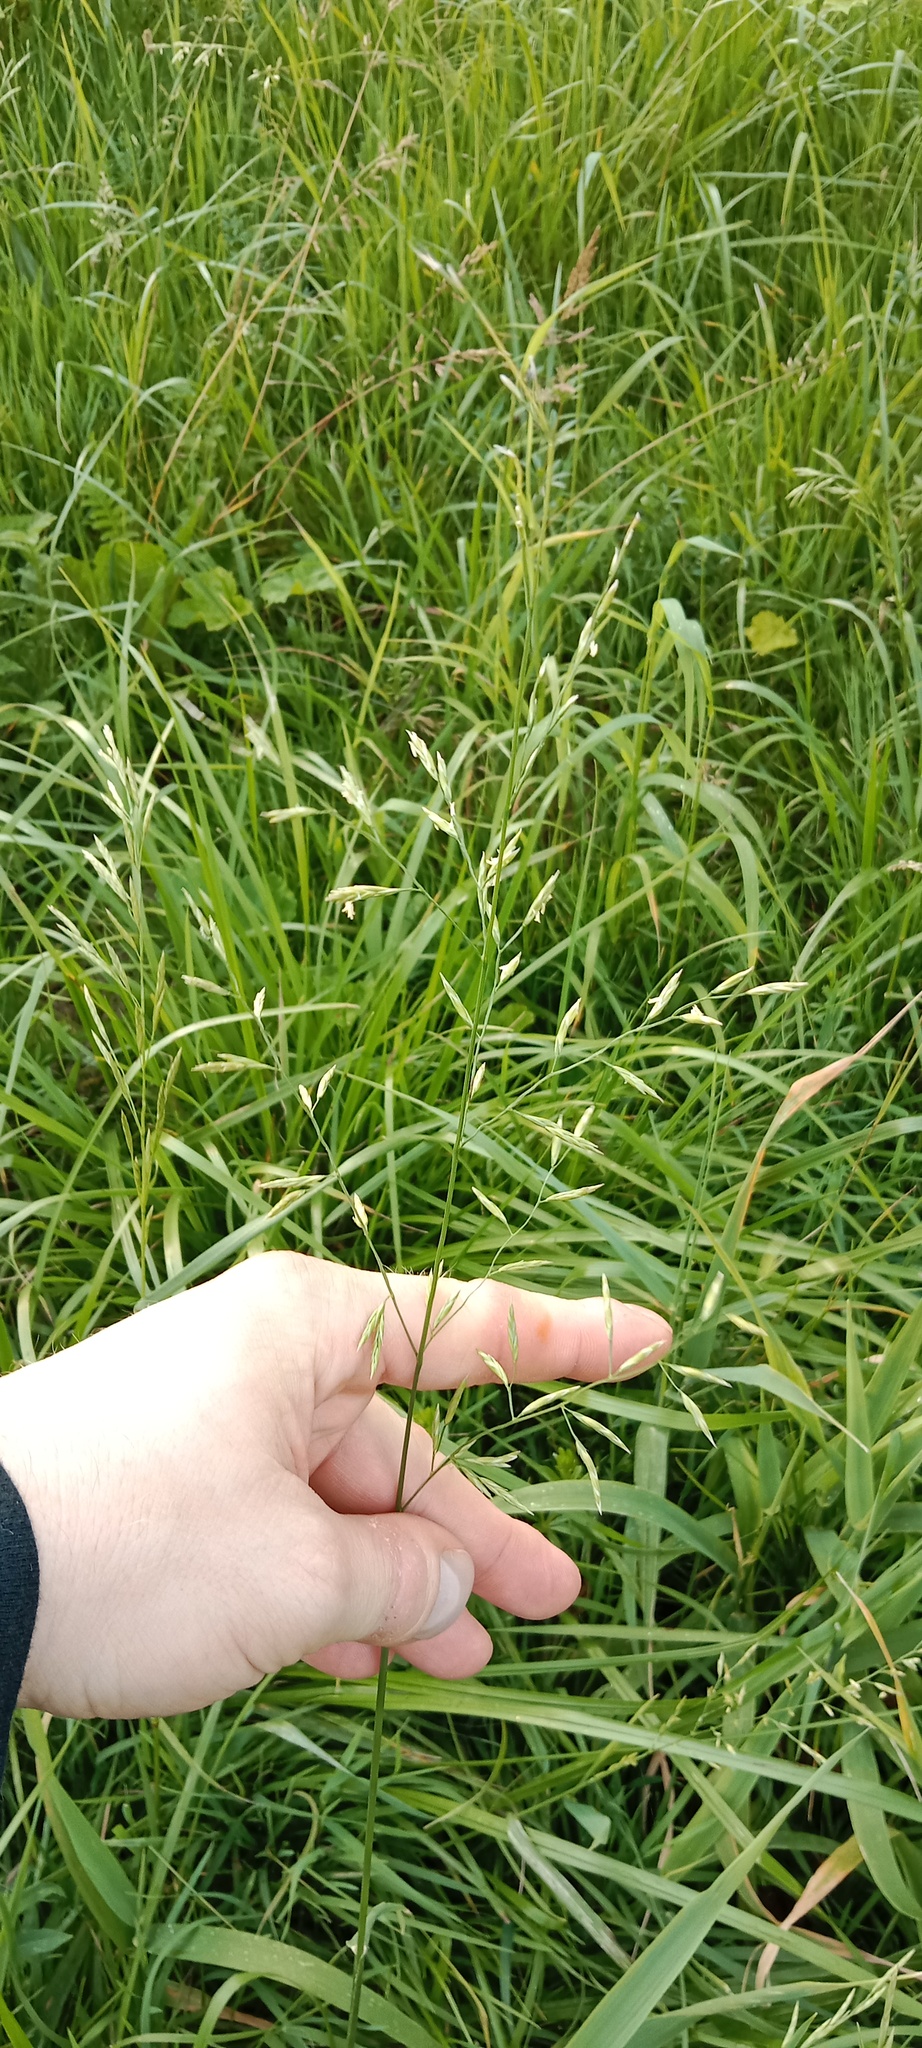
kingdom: Plantae
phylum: Tracheophyta
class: Liliopsida
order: Poales
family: Poaceae
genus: Lolium
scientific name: Lolium pratense
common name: Dover grass
